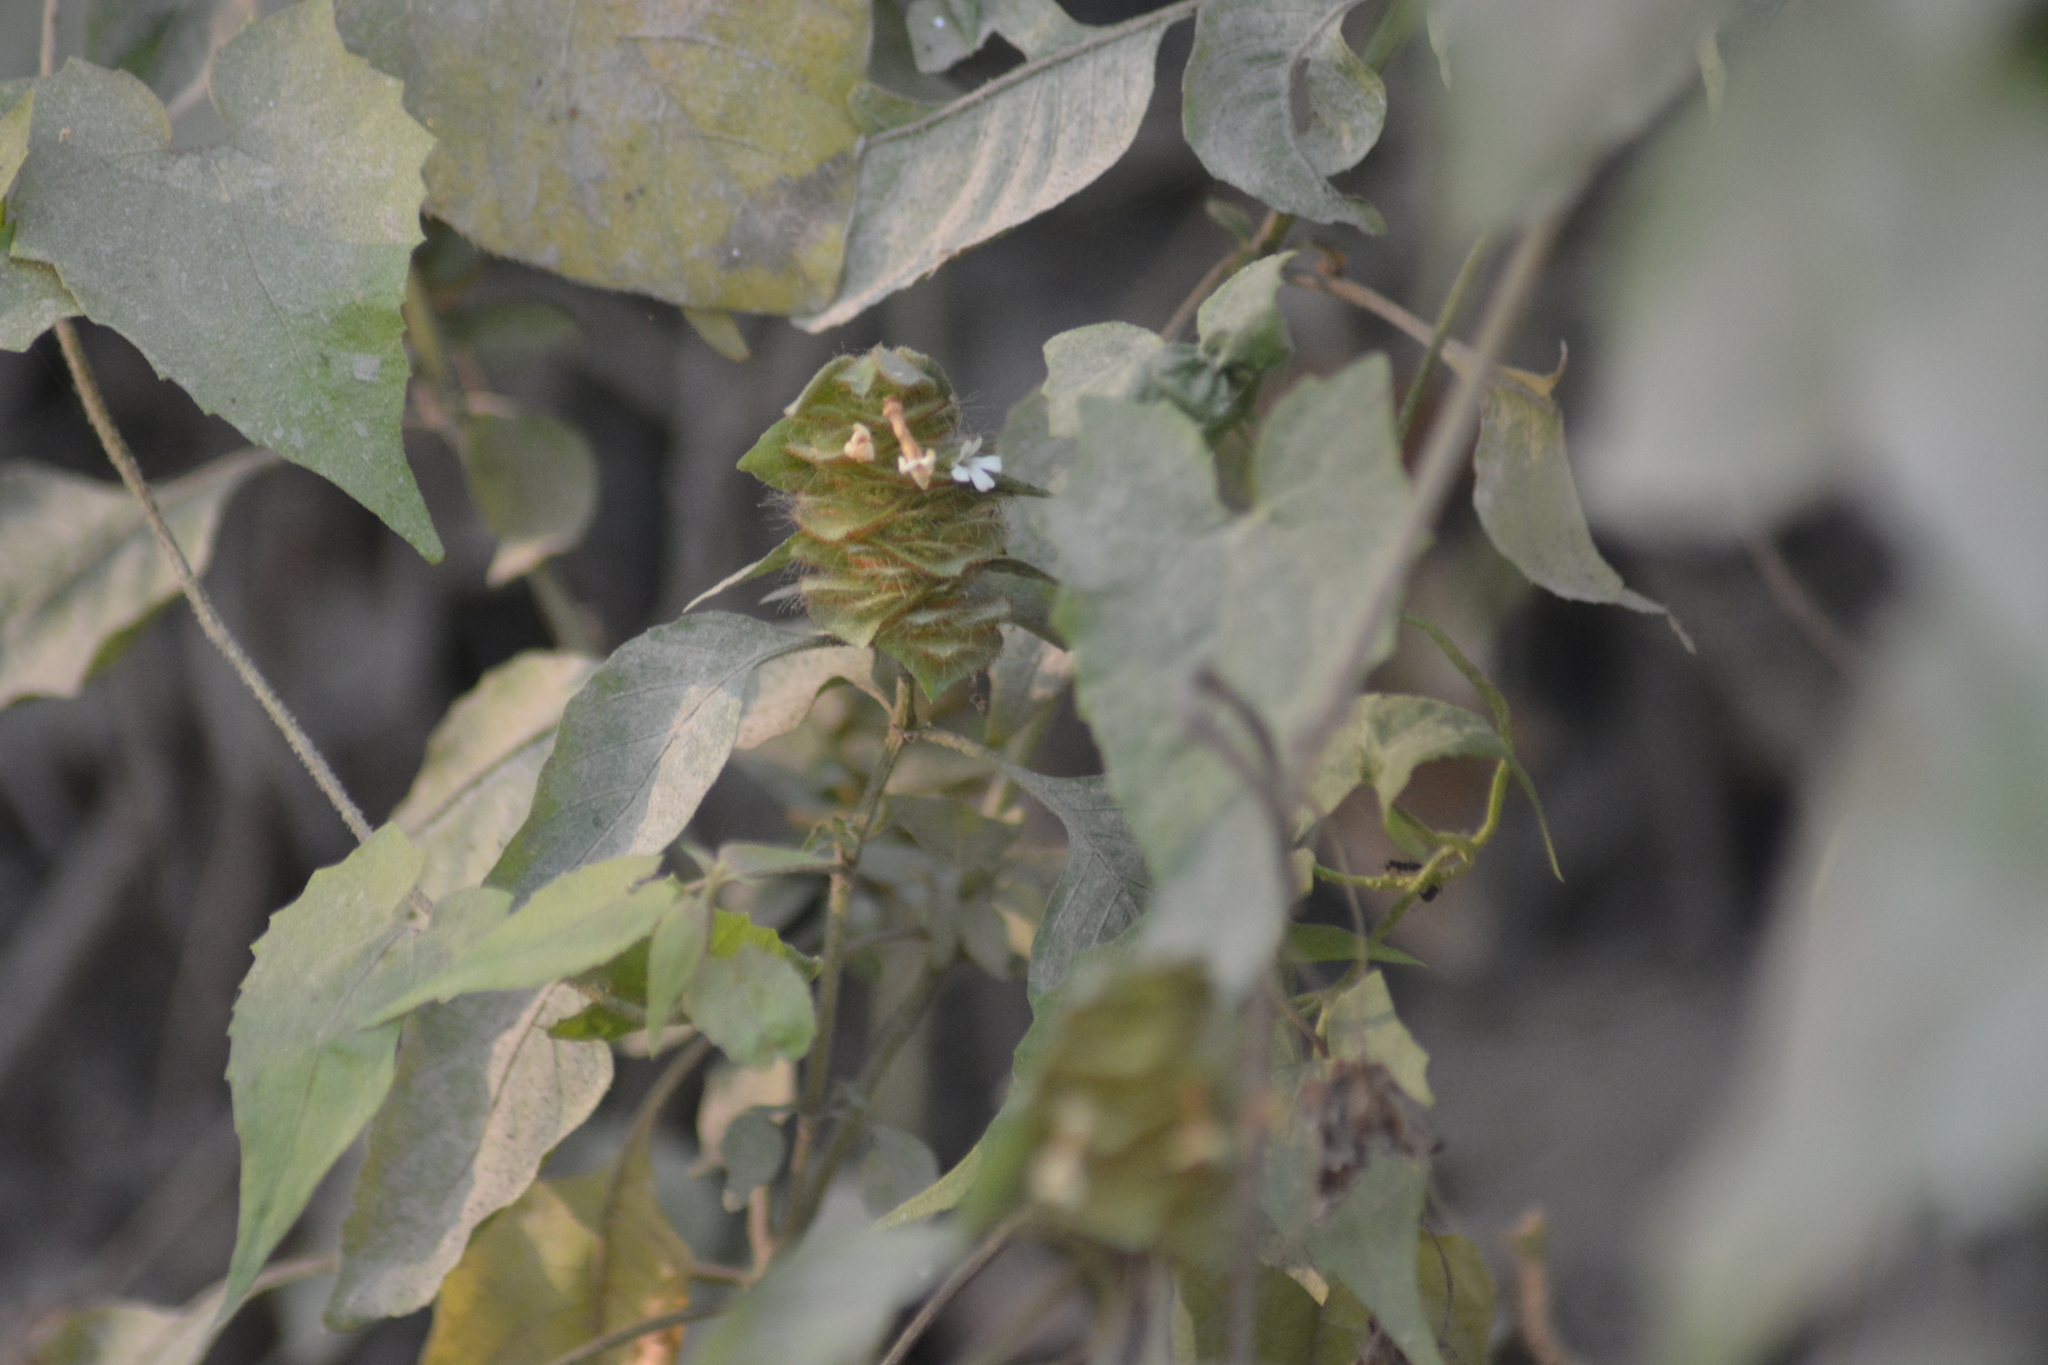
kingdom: Plantae
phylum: Tracheophyta
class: Magnoliopsida
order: Lamiales
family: Acanthaceae
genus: Phaulopsis
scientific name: Phaulopsis dorsiflora
